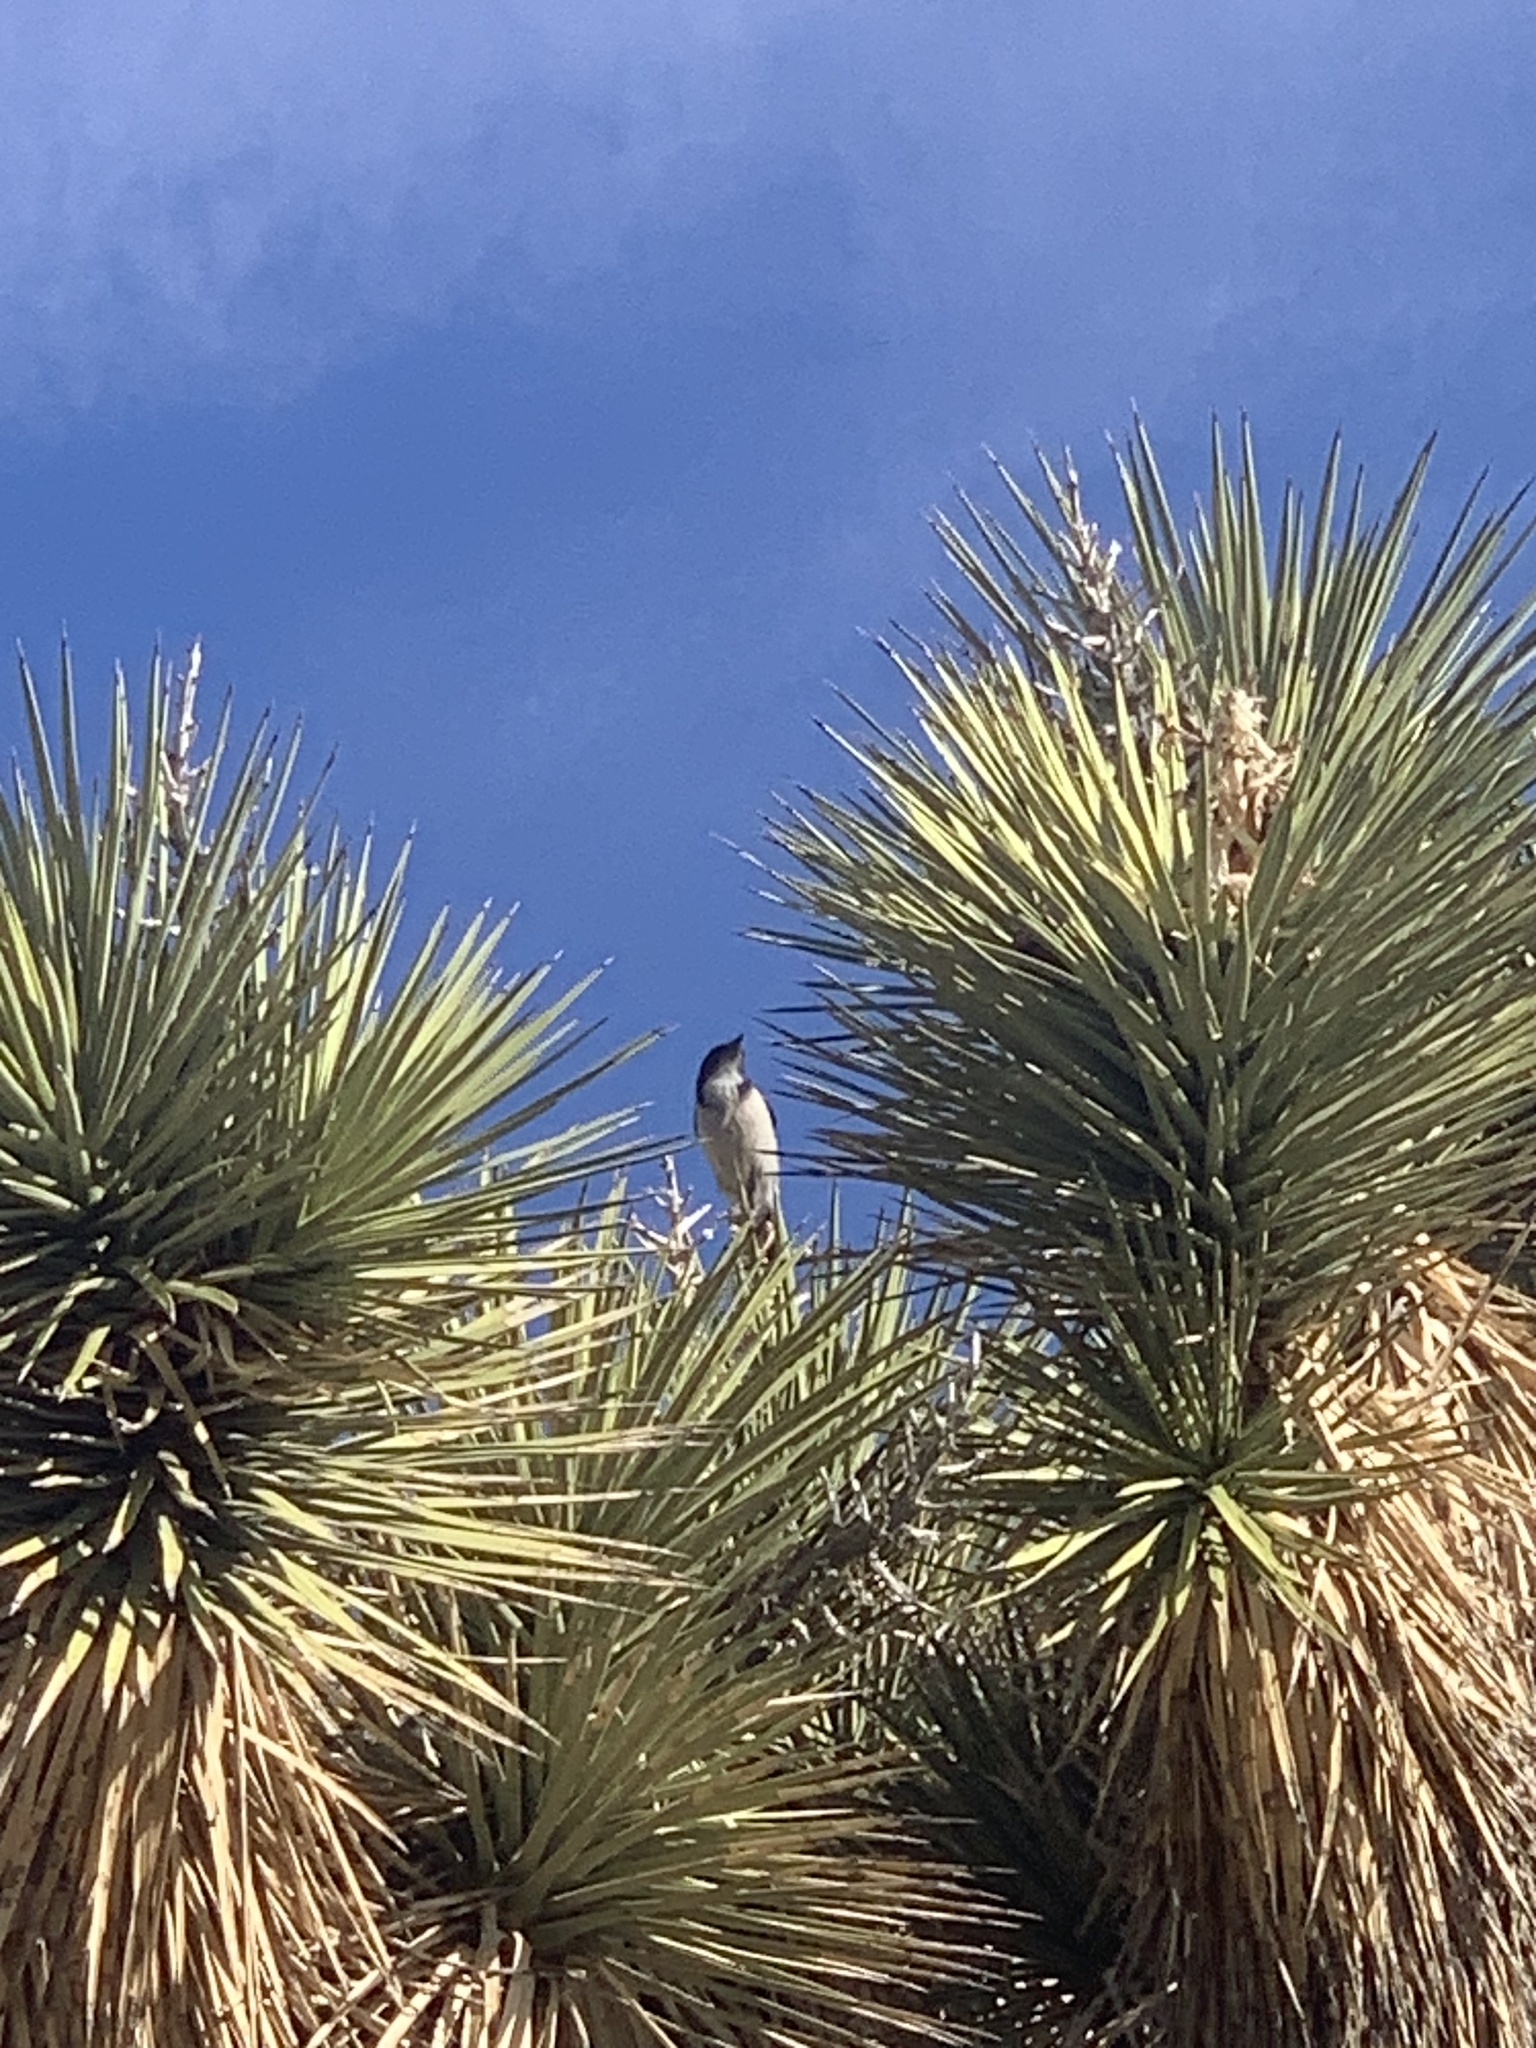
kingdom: Animalia
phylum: Chordata
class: Aves
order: Passeriformes
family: Corvidae
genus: Aphelocoma
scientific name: Aphelocoma californica
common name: California scrub-jay
